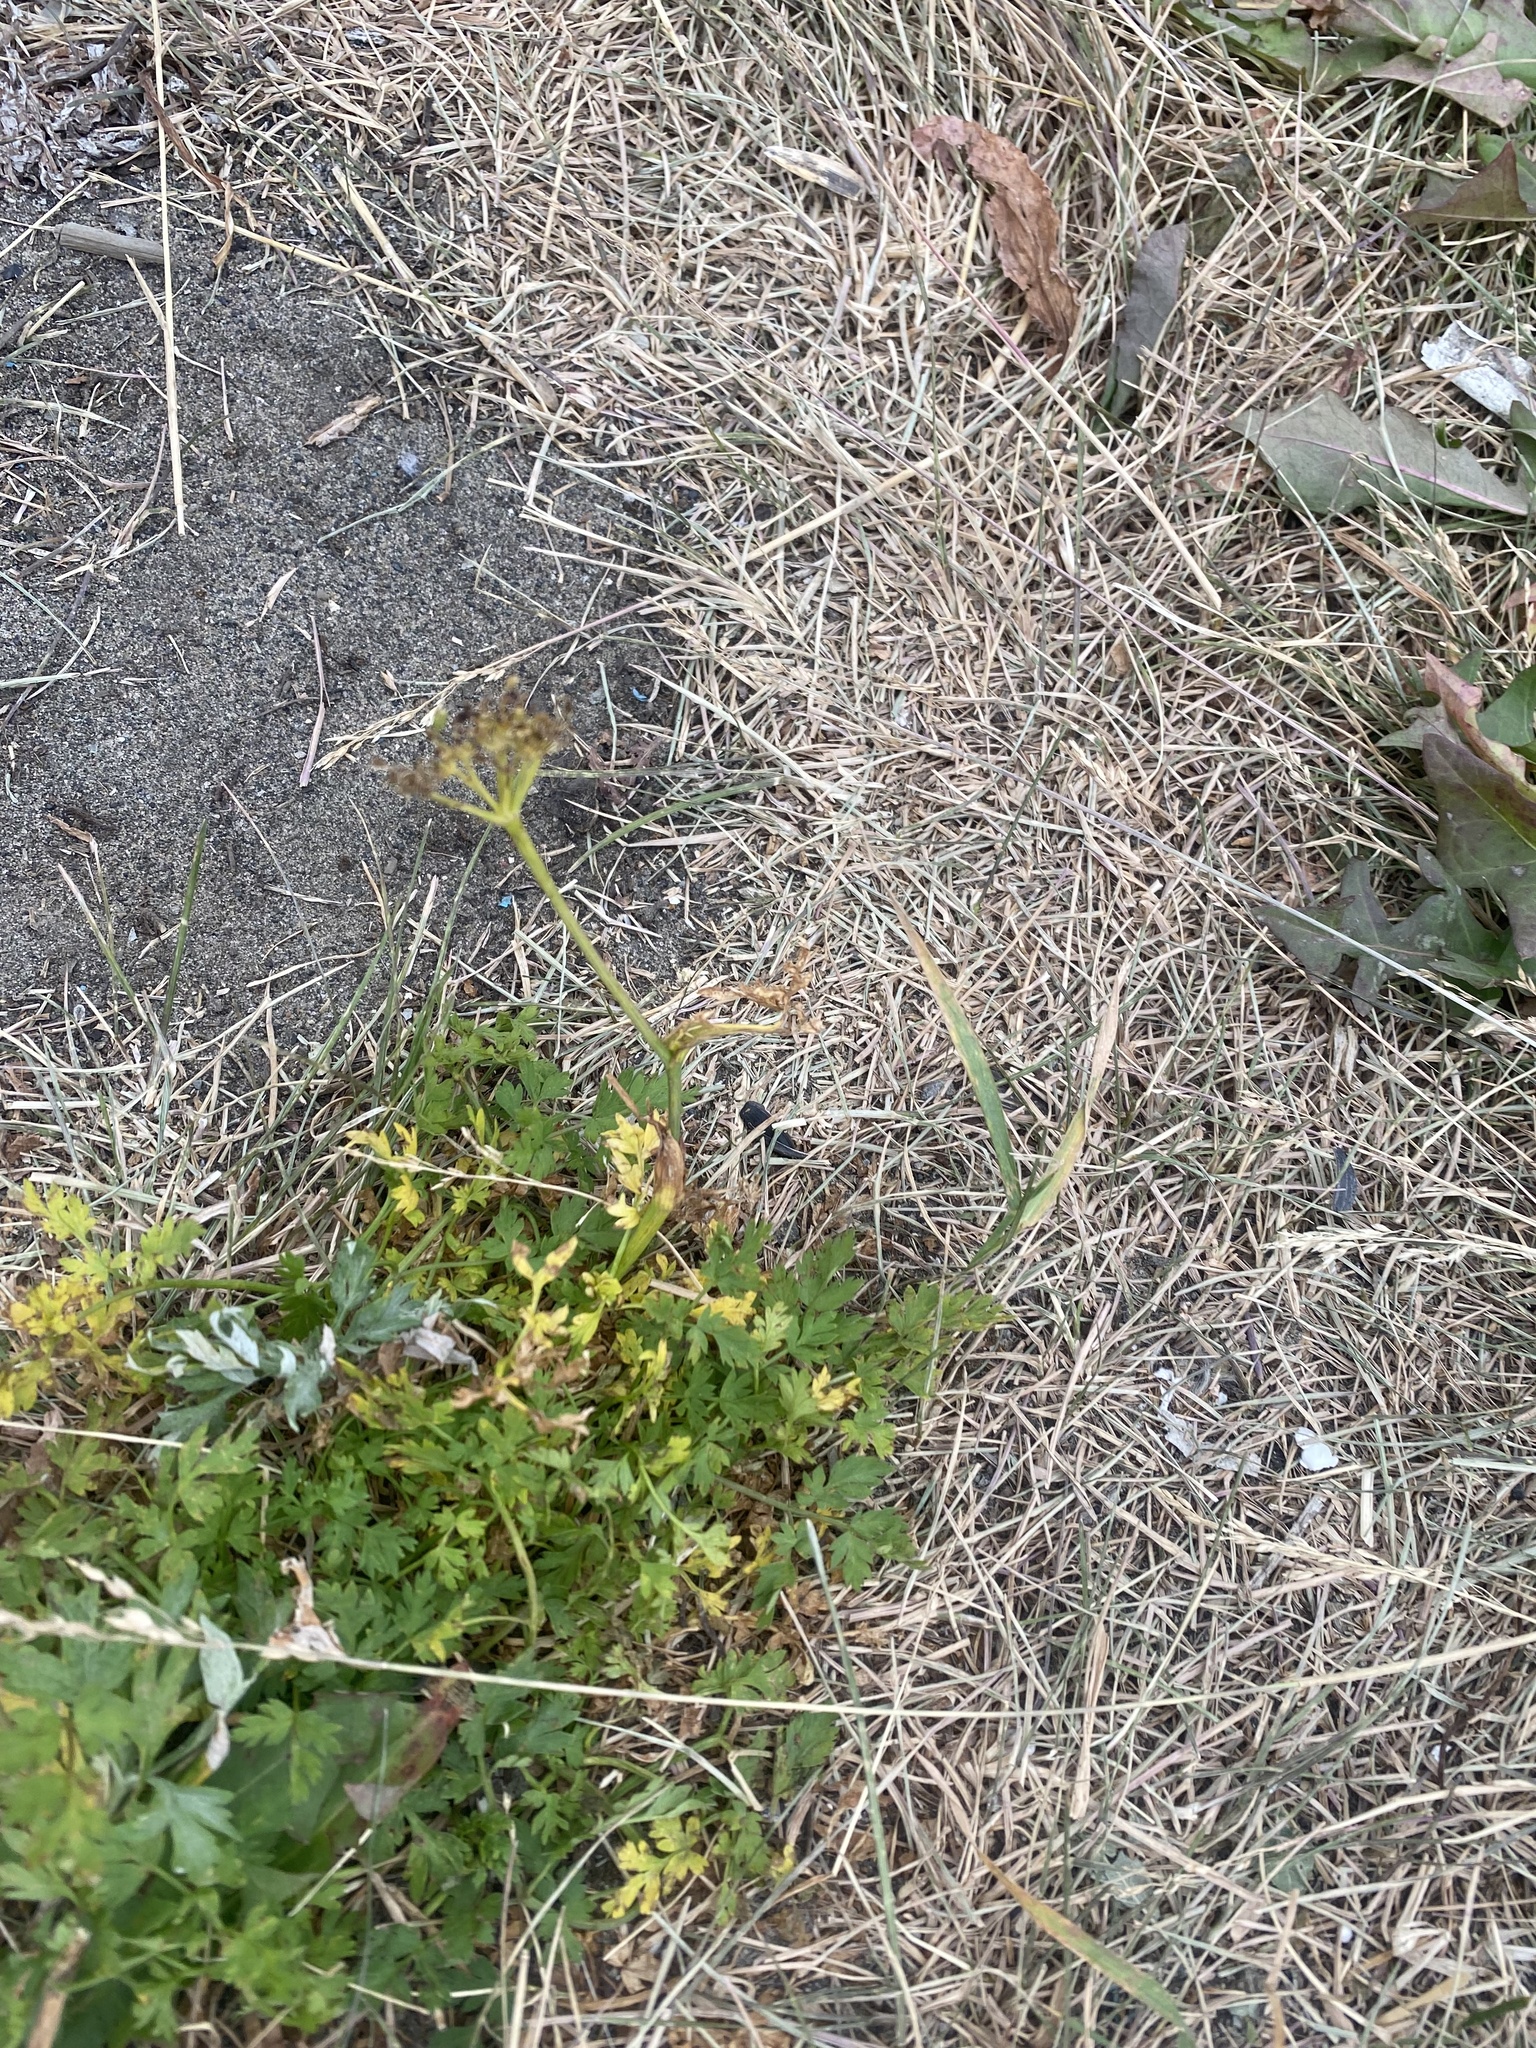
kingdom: Plantae
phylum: Tracheophyta
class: Magnoliopsida
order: Apiales
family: Apiaceae
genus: Seseli
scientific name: Seseli condensatum
